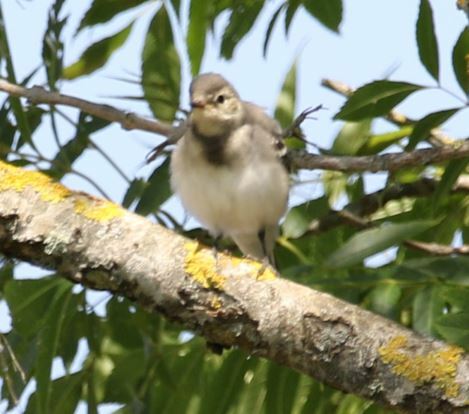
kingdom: Animalia
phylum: Chordata
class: Aves
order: Passeriformes
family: Motacillidae
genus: Motacilla
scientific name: Motacilla alba
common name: White wagtail
